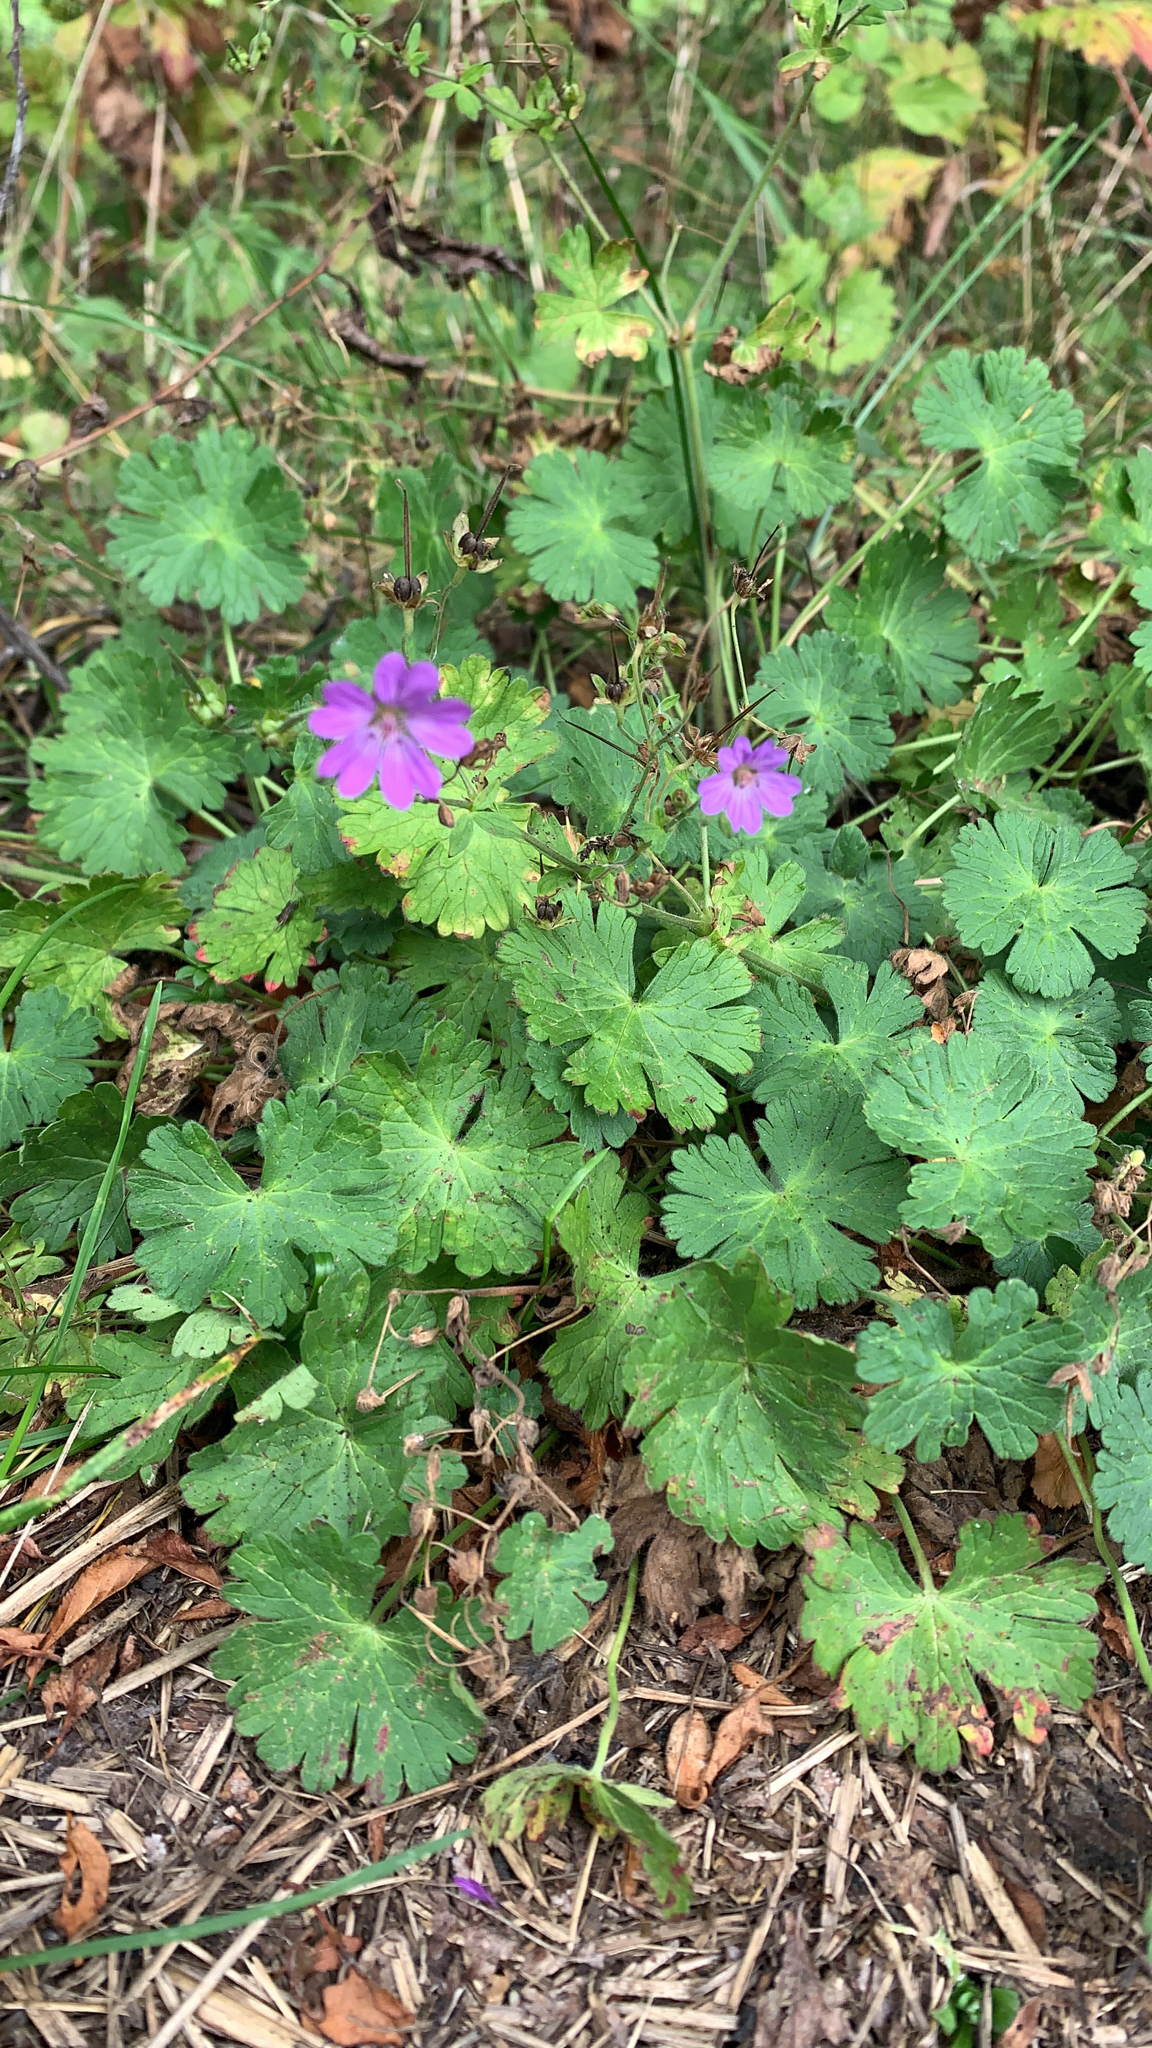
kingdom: Plantae
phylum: Tracheophyta
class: Magnoliopsida
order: Geraniales
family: Geraniaceae
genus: Geranium
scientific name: Geranium pyrenaicum
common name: Hedgerow crane's-bill
